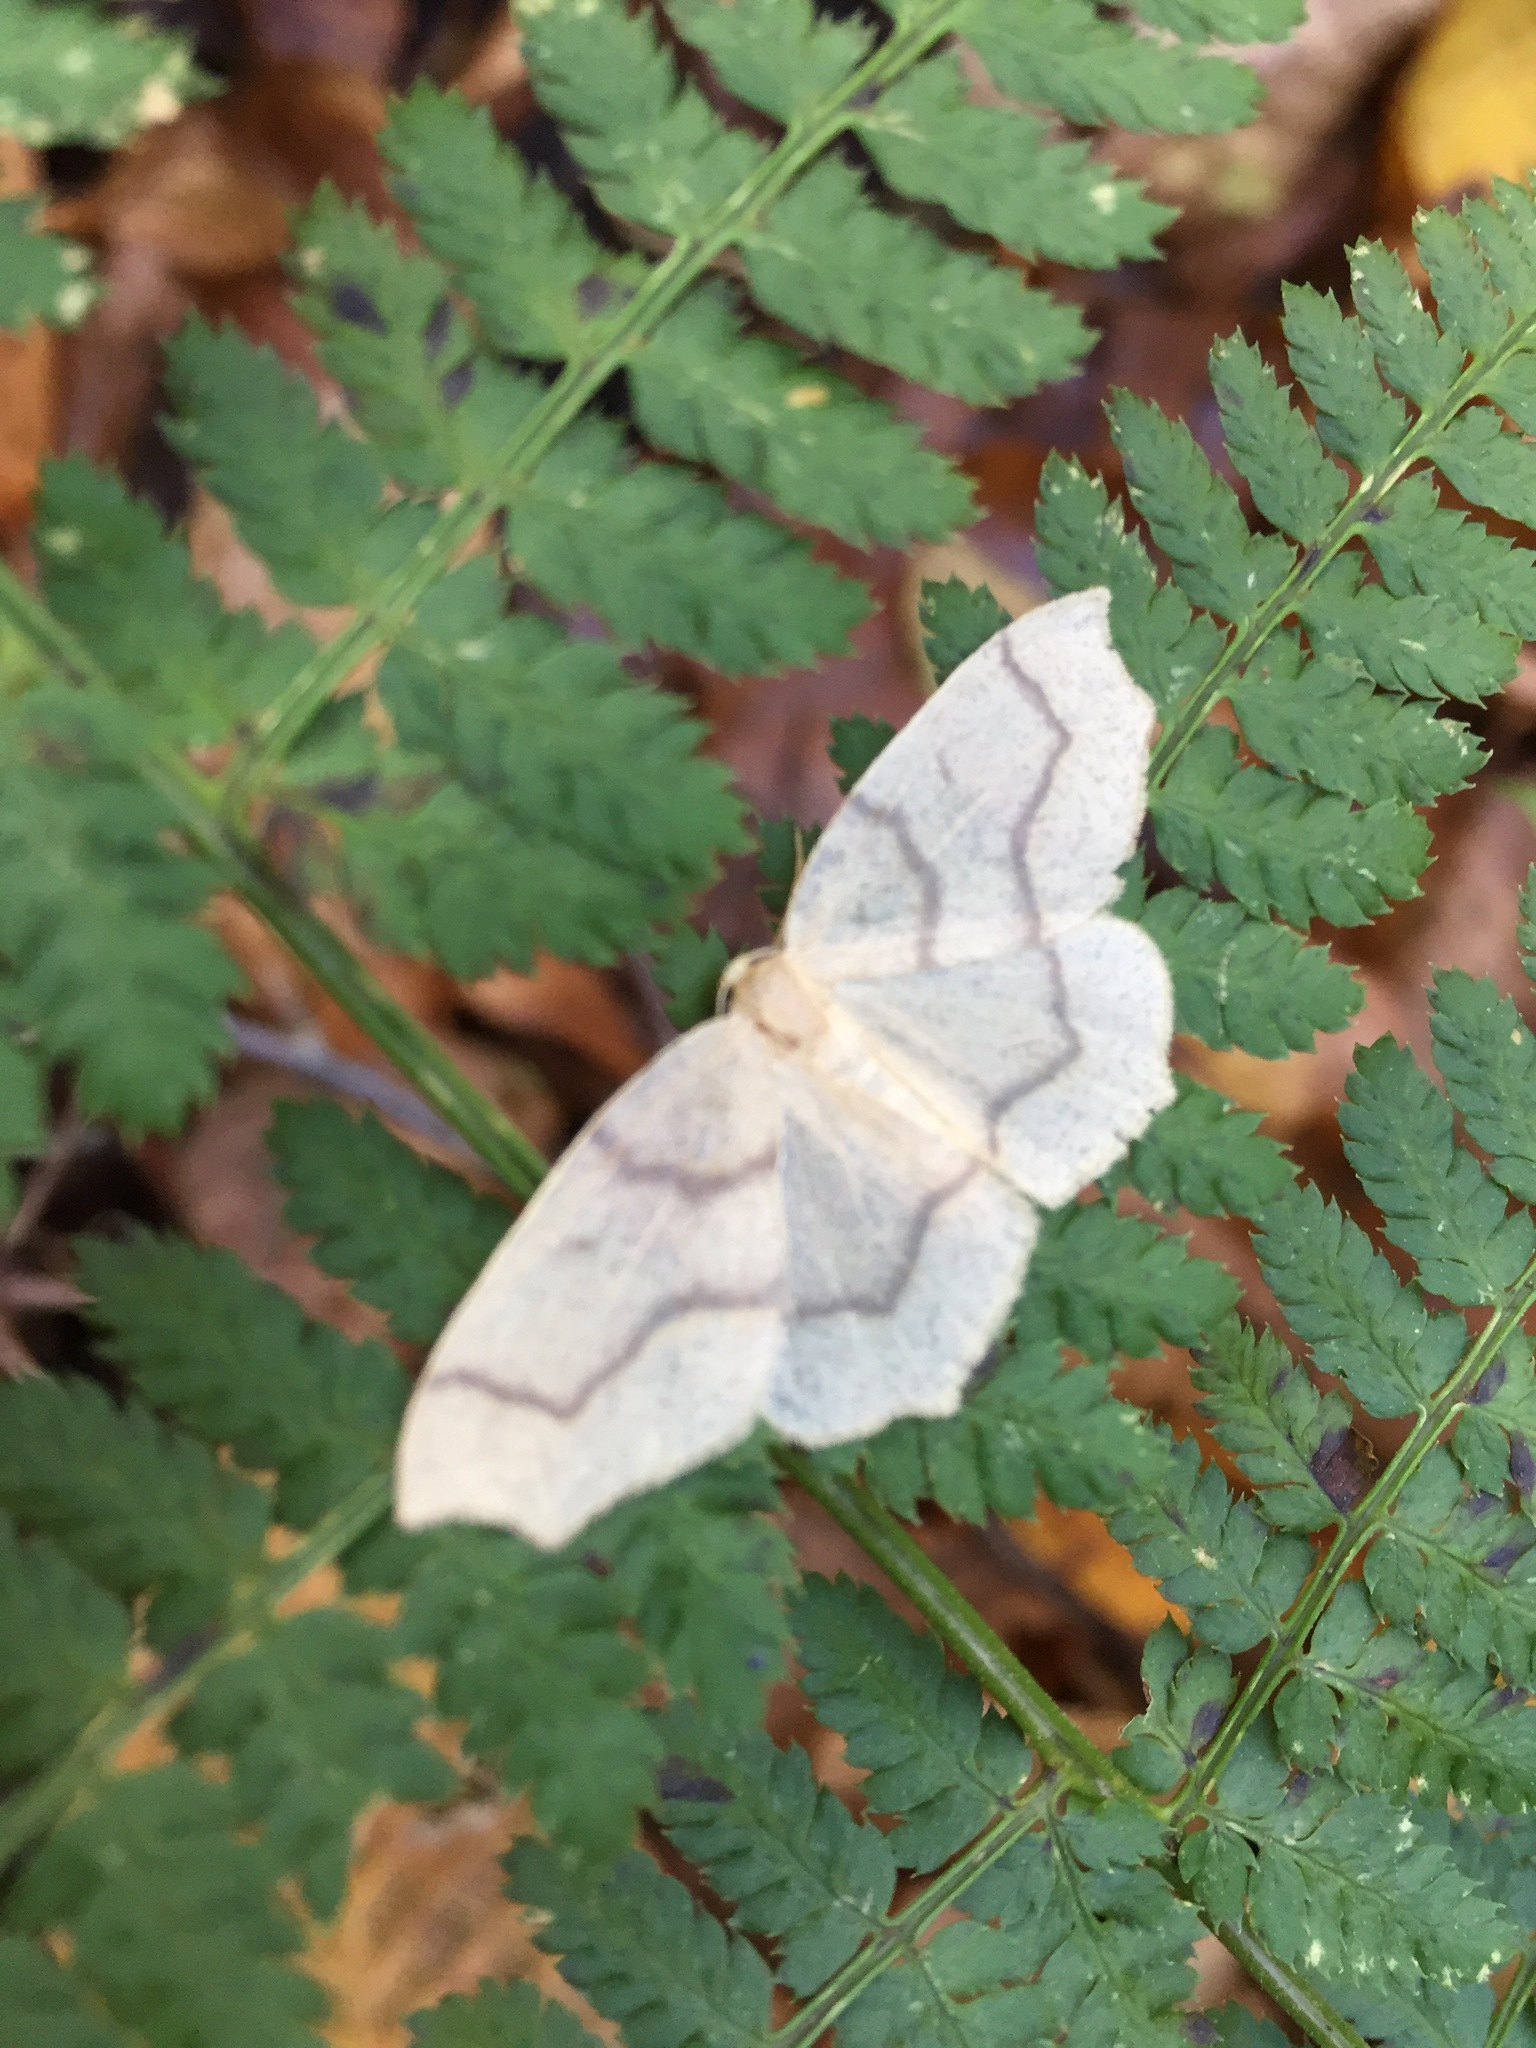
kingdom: Animalia
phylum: Arthropoda
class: Insecta
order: Lepidoptera
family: Geometridae
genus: Lambdina
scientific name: Lambdina fiscellaria
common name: Hemlock looper
